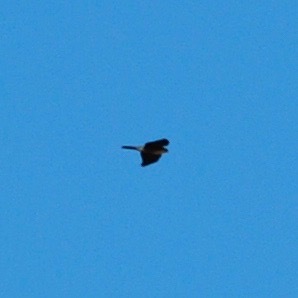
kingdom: Animalia
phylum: Chordata
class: Aves
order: Accipitriformes
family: Accipitridae
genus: Accipiter
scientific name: Accipiter
